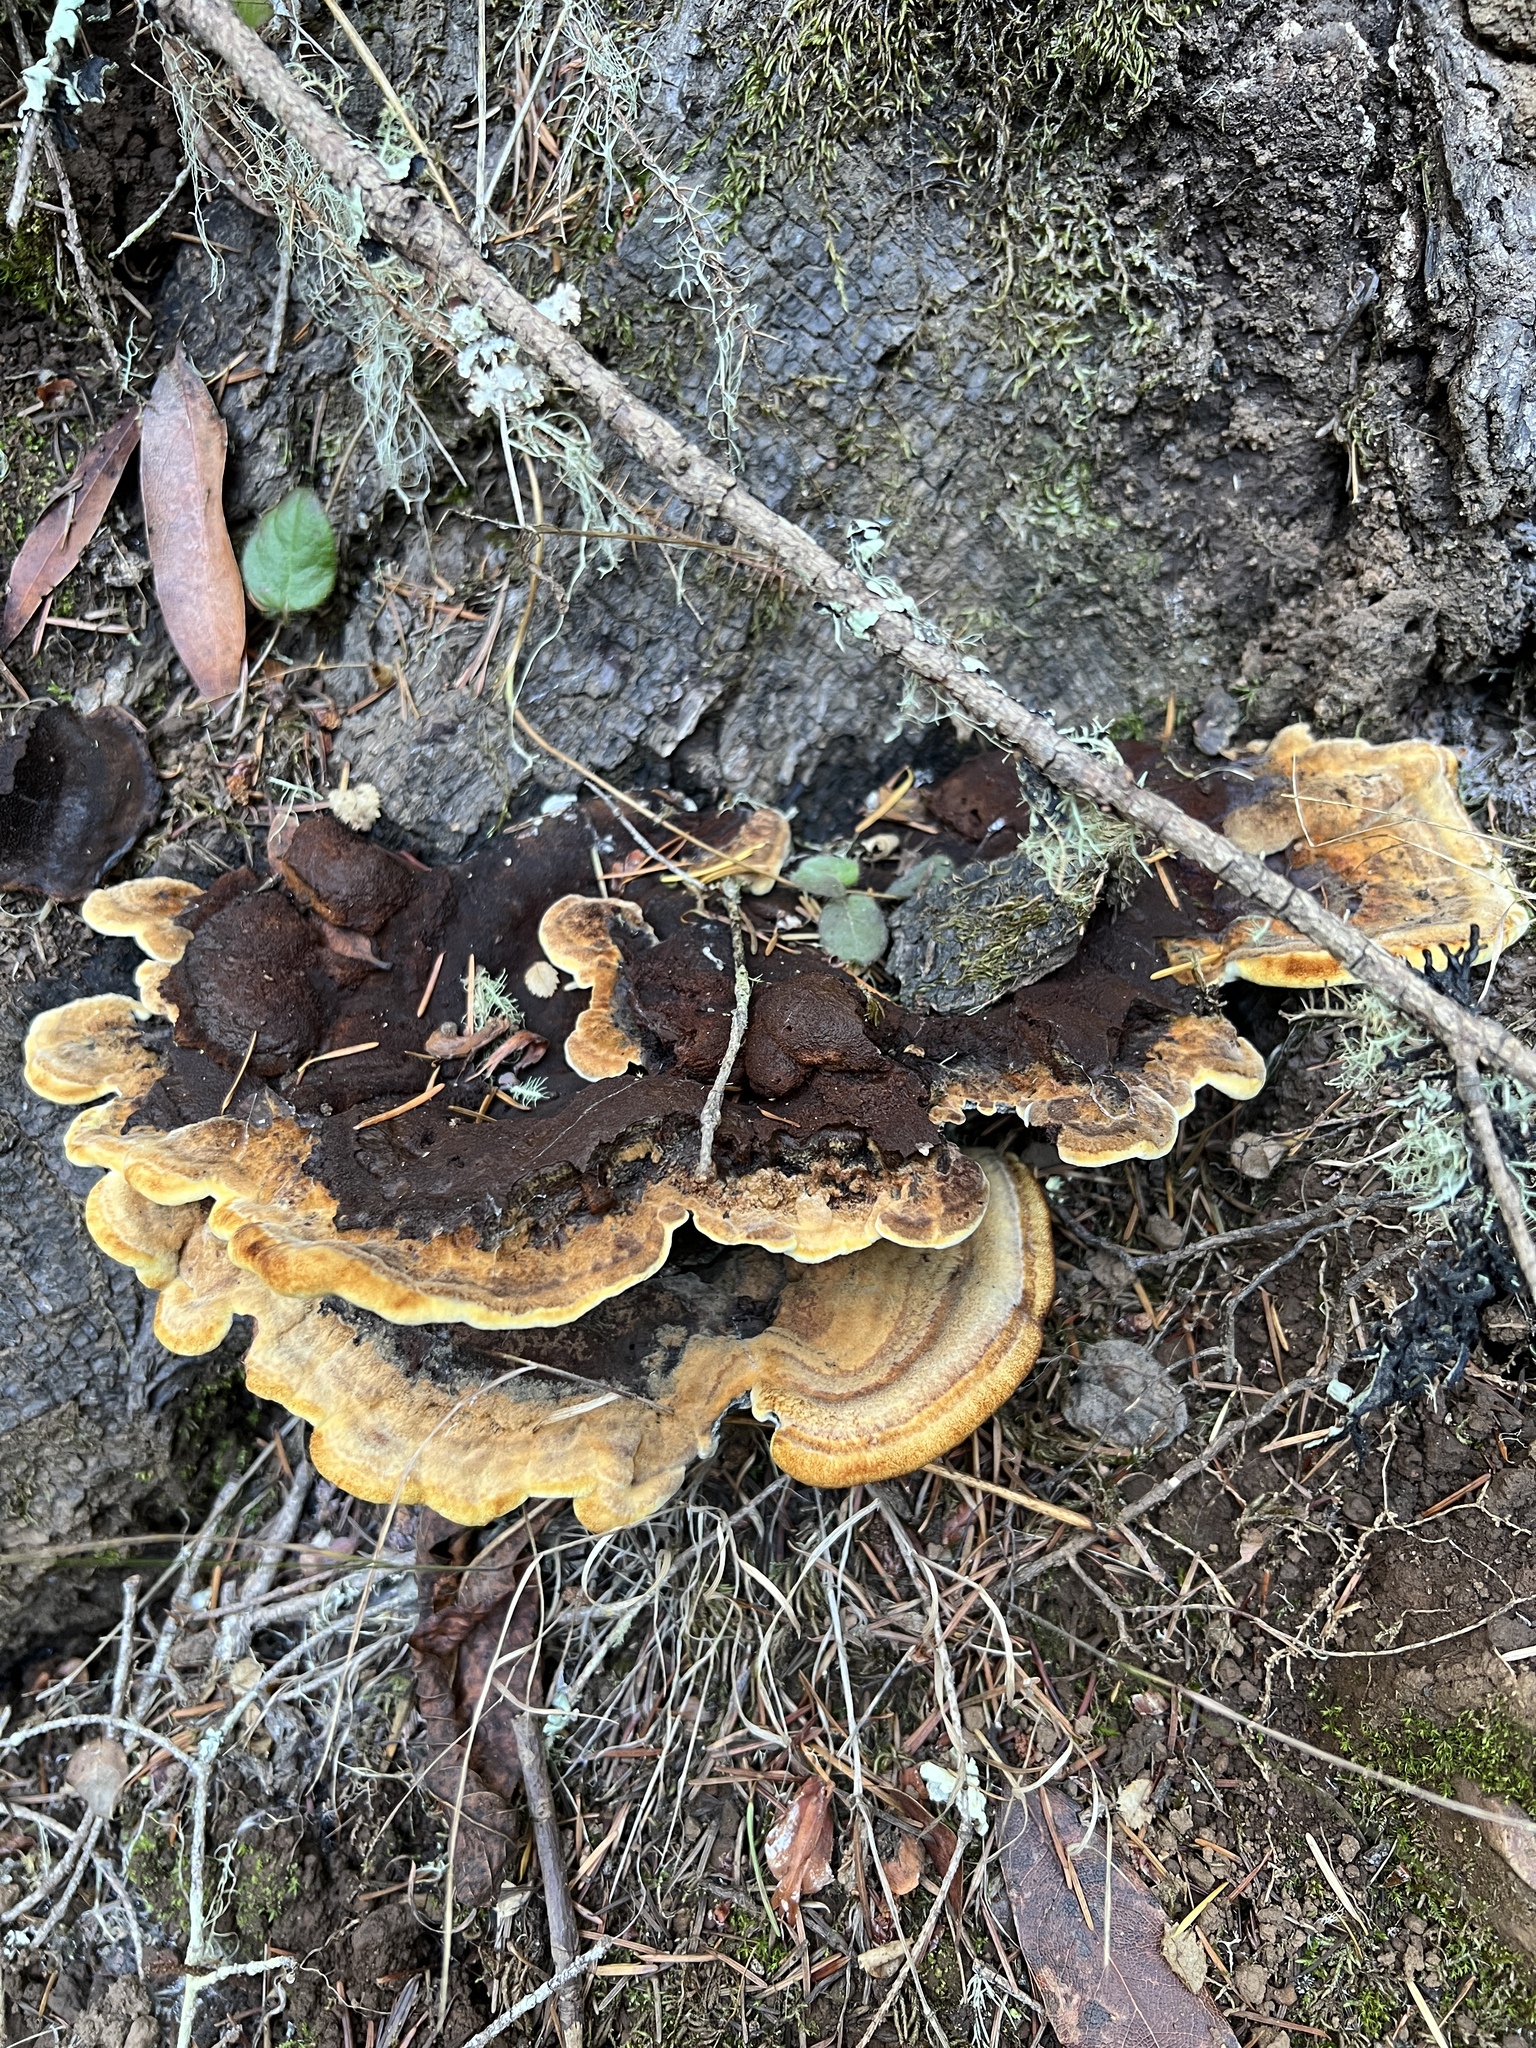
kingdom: Fungi
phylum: Basidiomycota
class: Agaricomycetes
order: Polyporales
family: Laetiporaceae
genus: Phaeolus
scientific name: Phaeolus schweinitzii
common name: Dyer's mazegill
